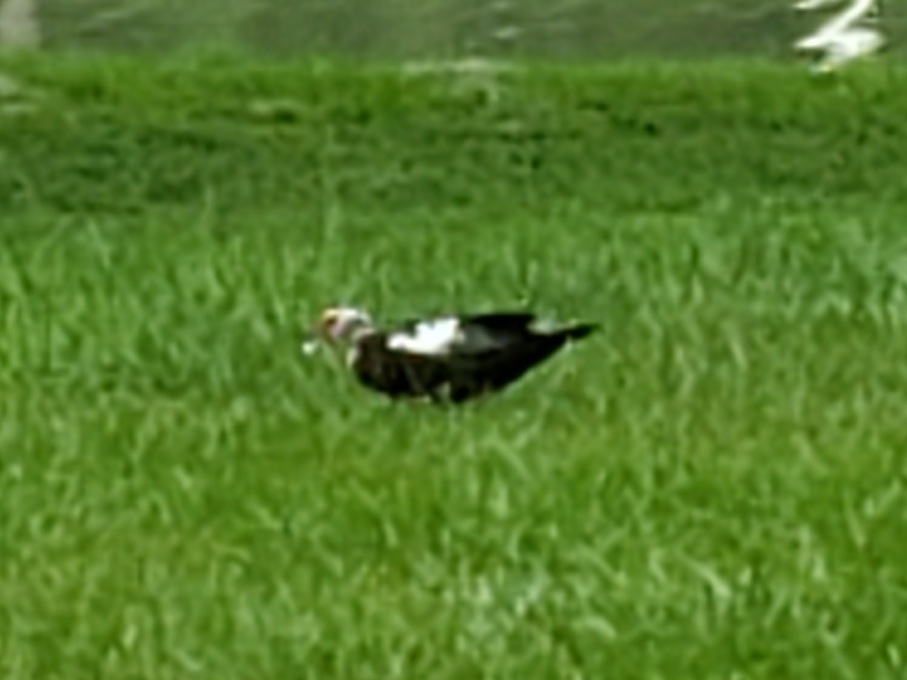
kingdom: Animalia
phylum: Chordata
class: Aves
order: Anseriformes
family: Anatidae
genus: Cairina
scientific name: Cairina moschata
